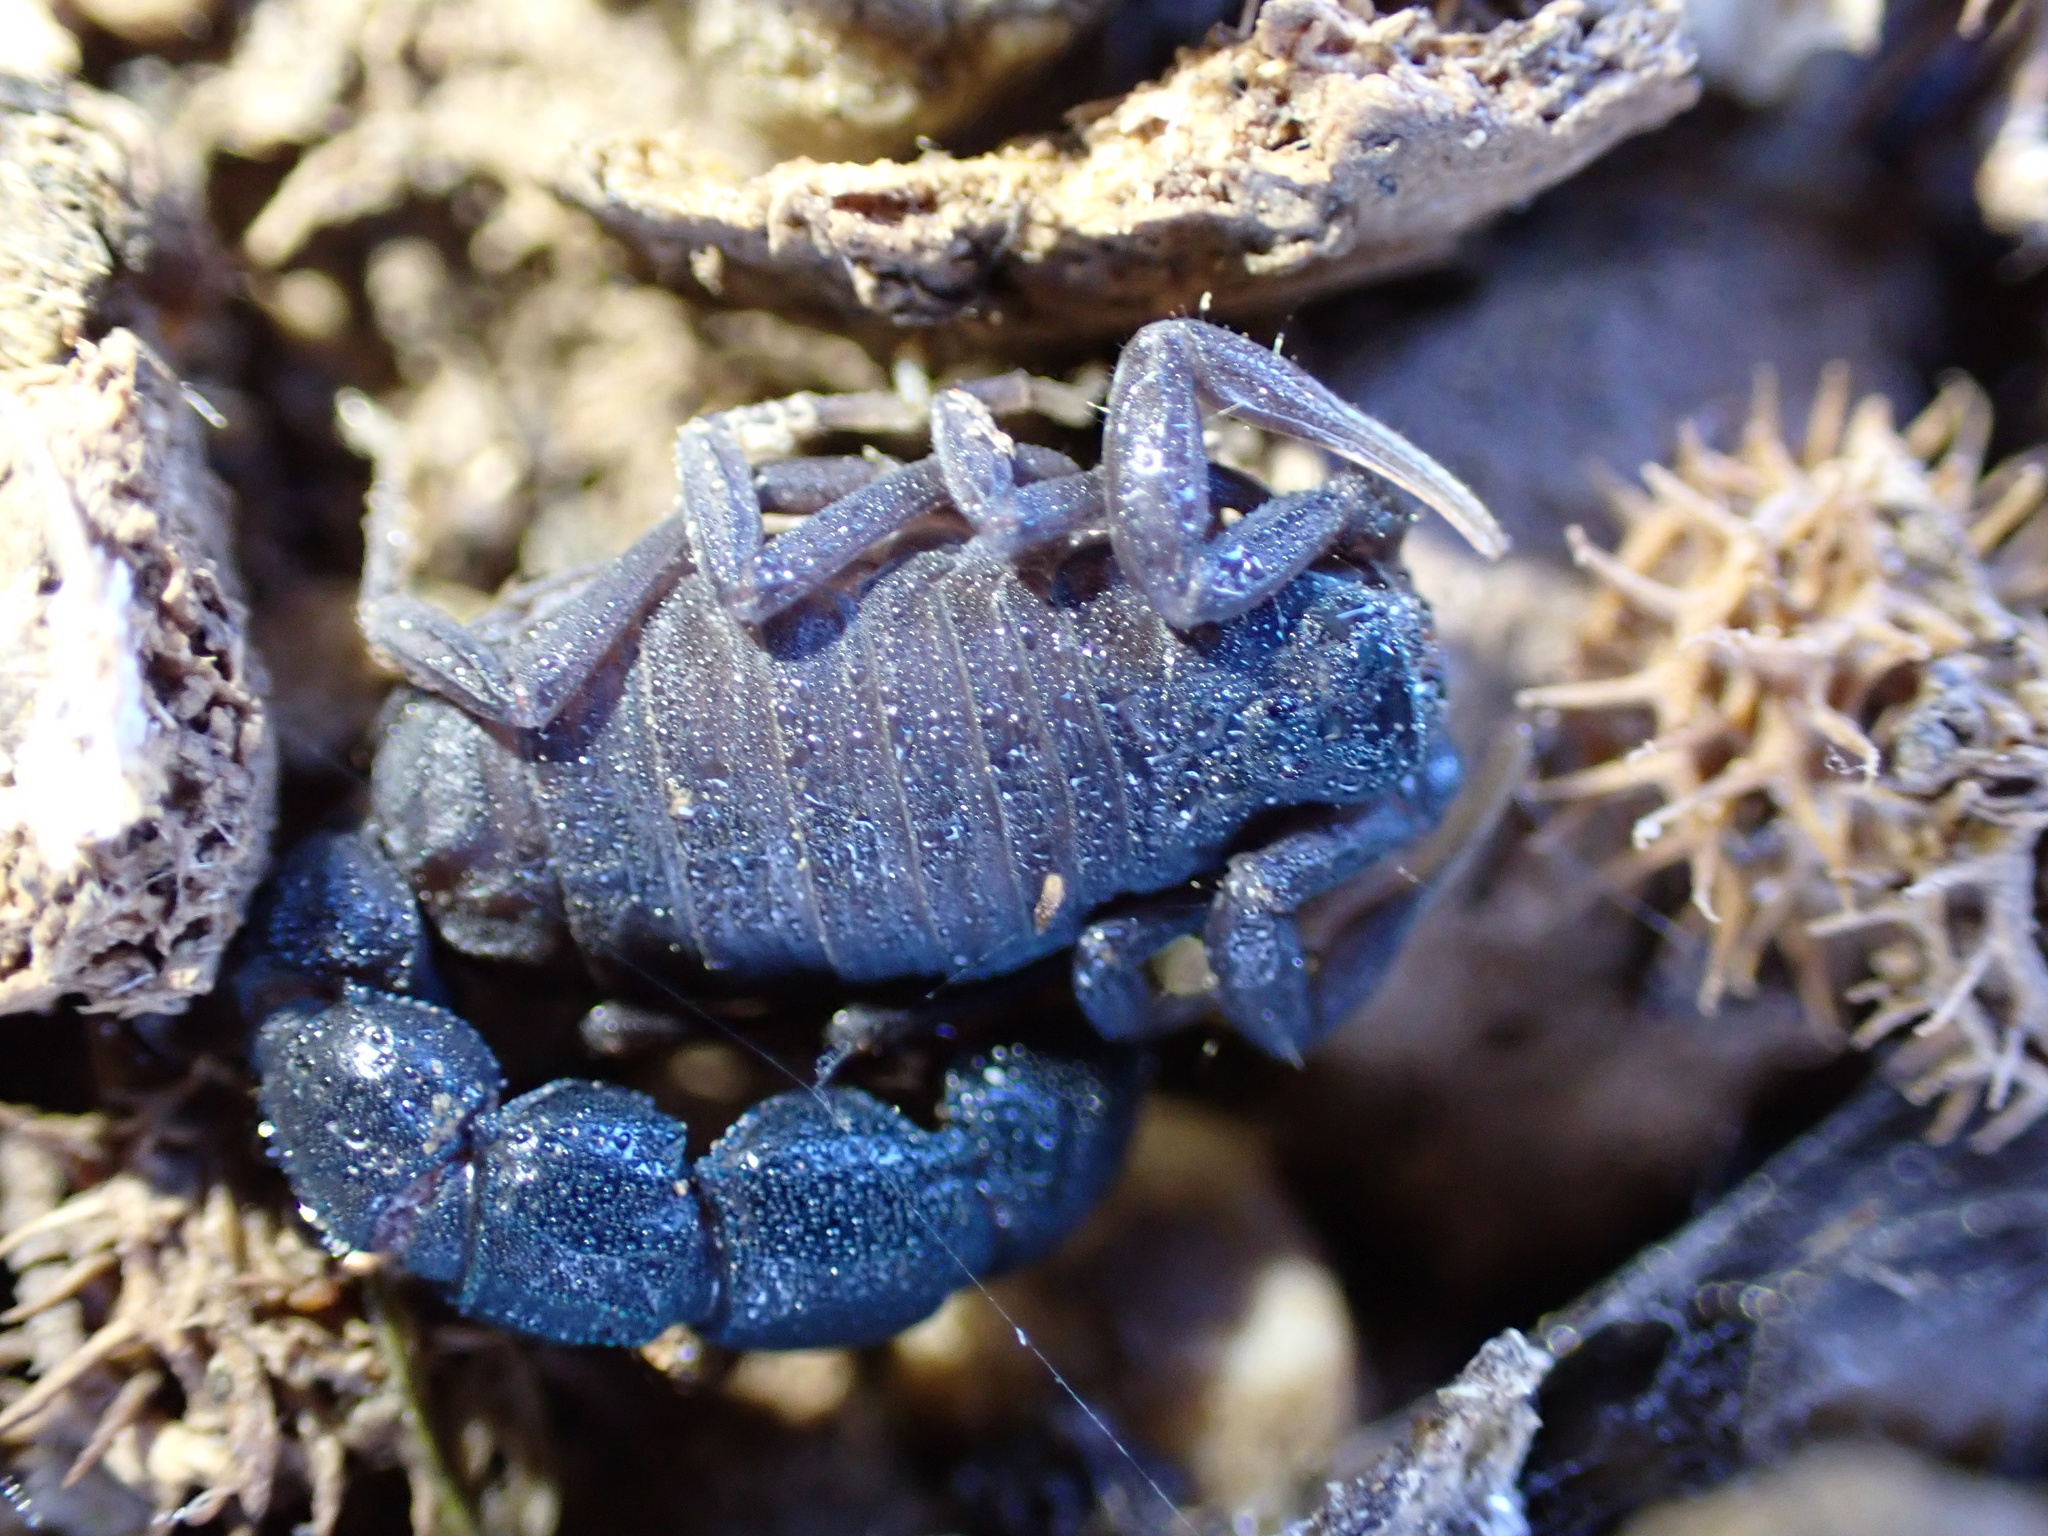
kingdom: Animalia
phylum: Arthropoda
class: Arachnida
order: Scorpiones
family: Buthidae
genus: Orthochirus
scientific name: Orthochirus farzanpayi
